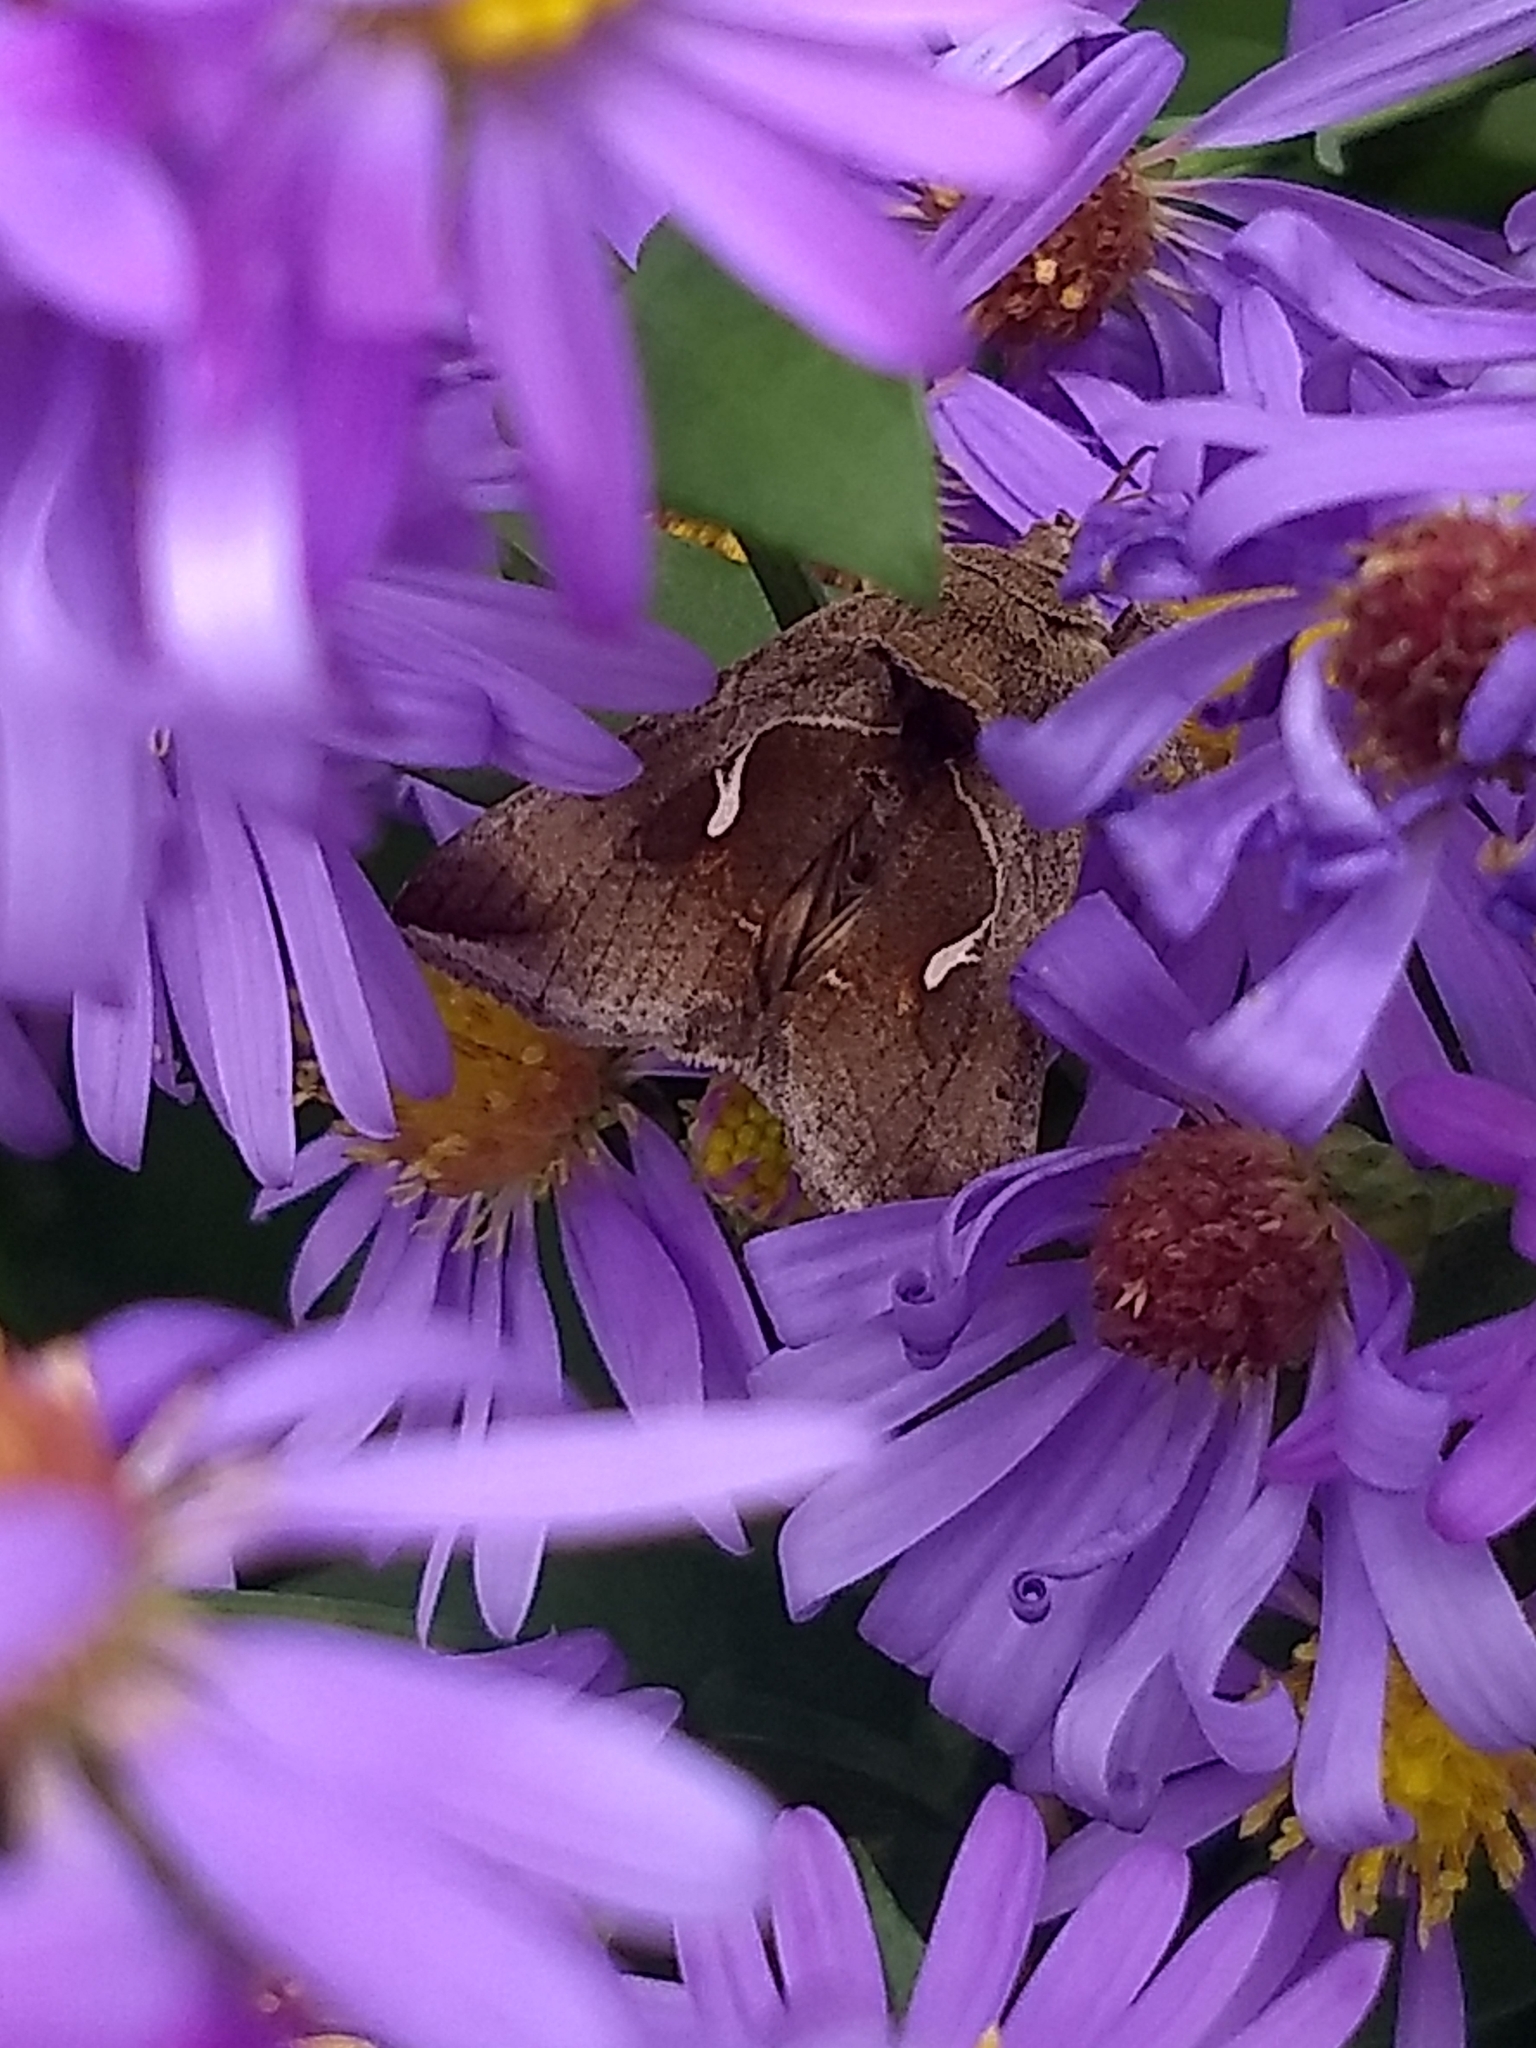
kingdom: Animalia
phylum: Arthropoda
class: Insecta
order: Lepidoptera
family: Noctuidae
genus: Anagrapha
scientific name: Anagrapha falcifera
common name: Celery looper
